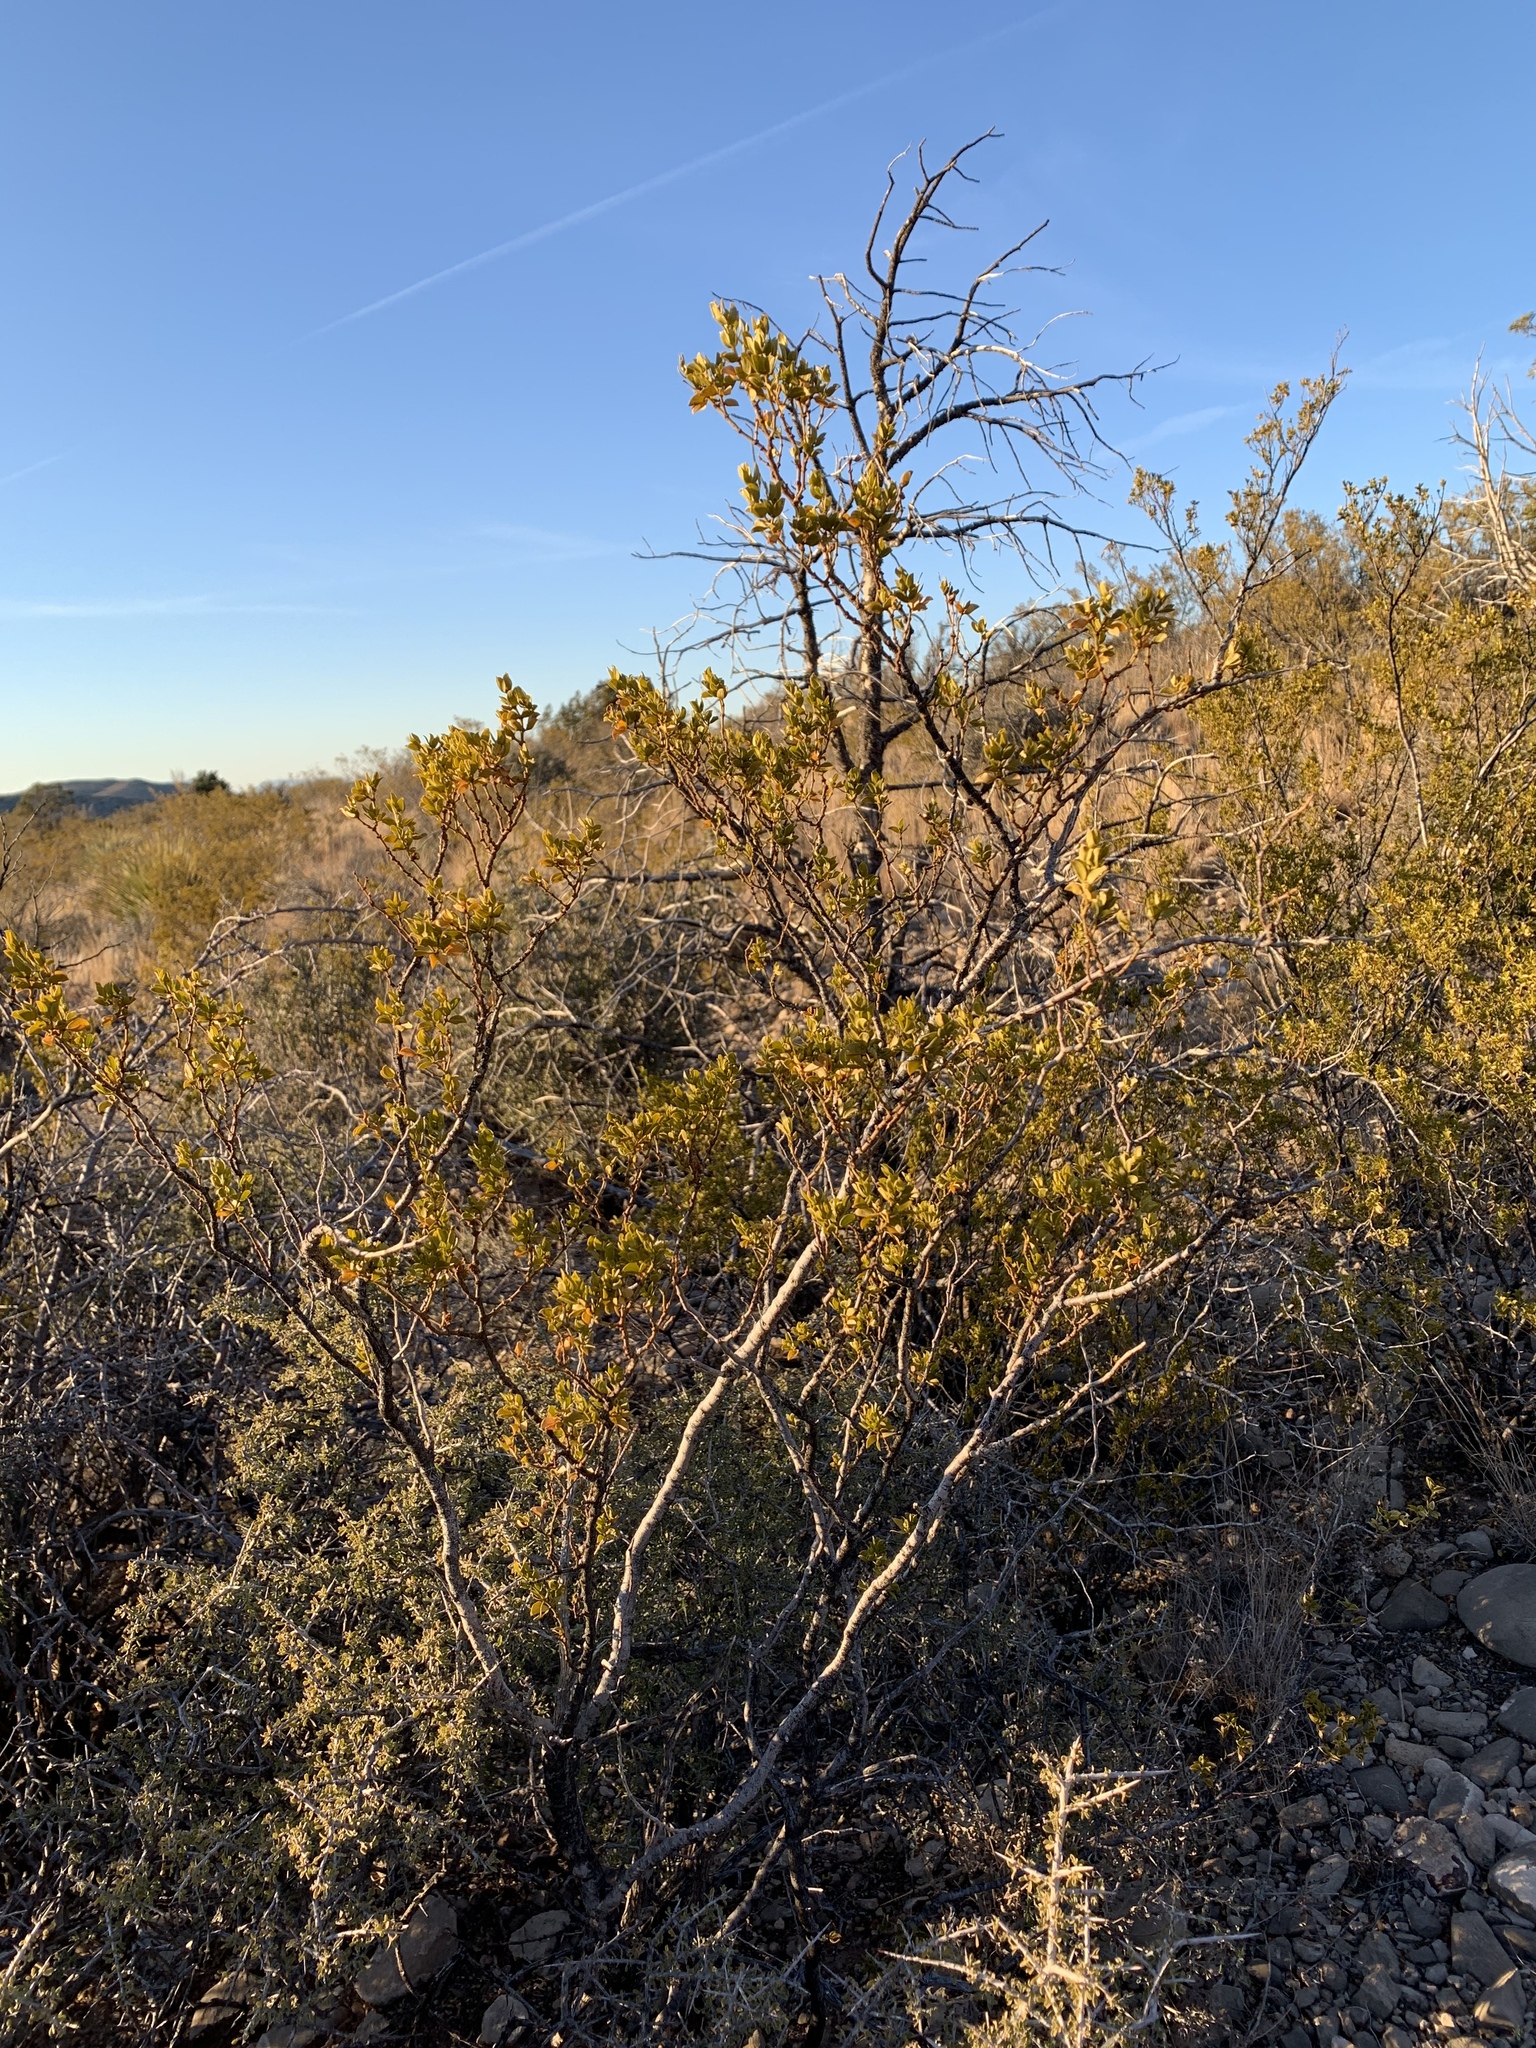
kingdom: Plantae
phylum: Tracheophyta
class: Magnoliopsida
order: Zygophyllales
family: Zygophyllaceae
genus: Larrea
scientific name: Larrea tridentata
